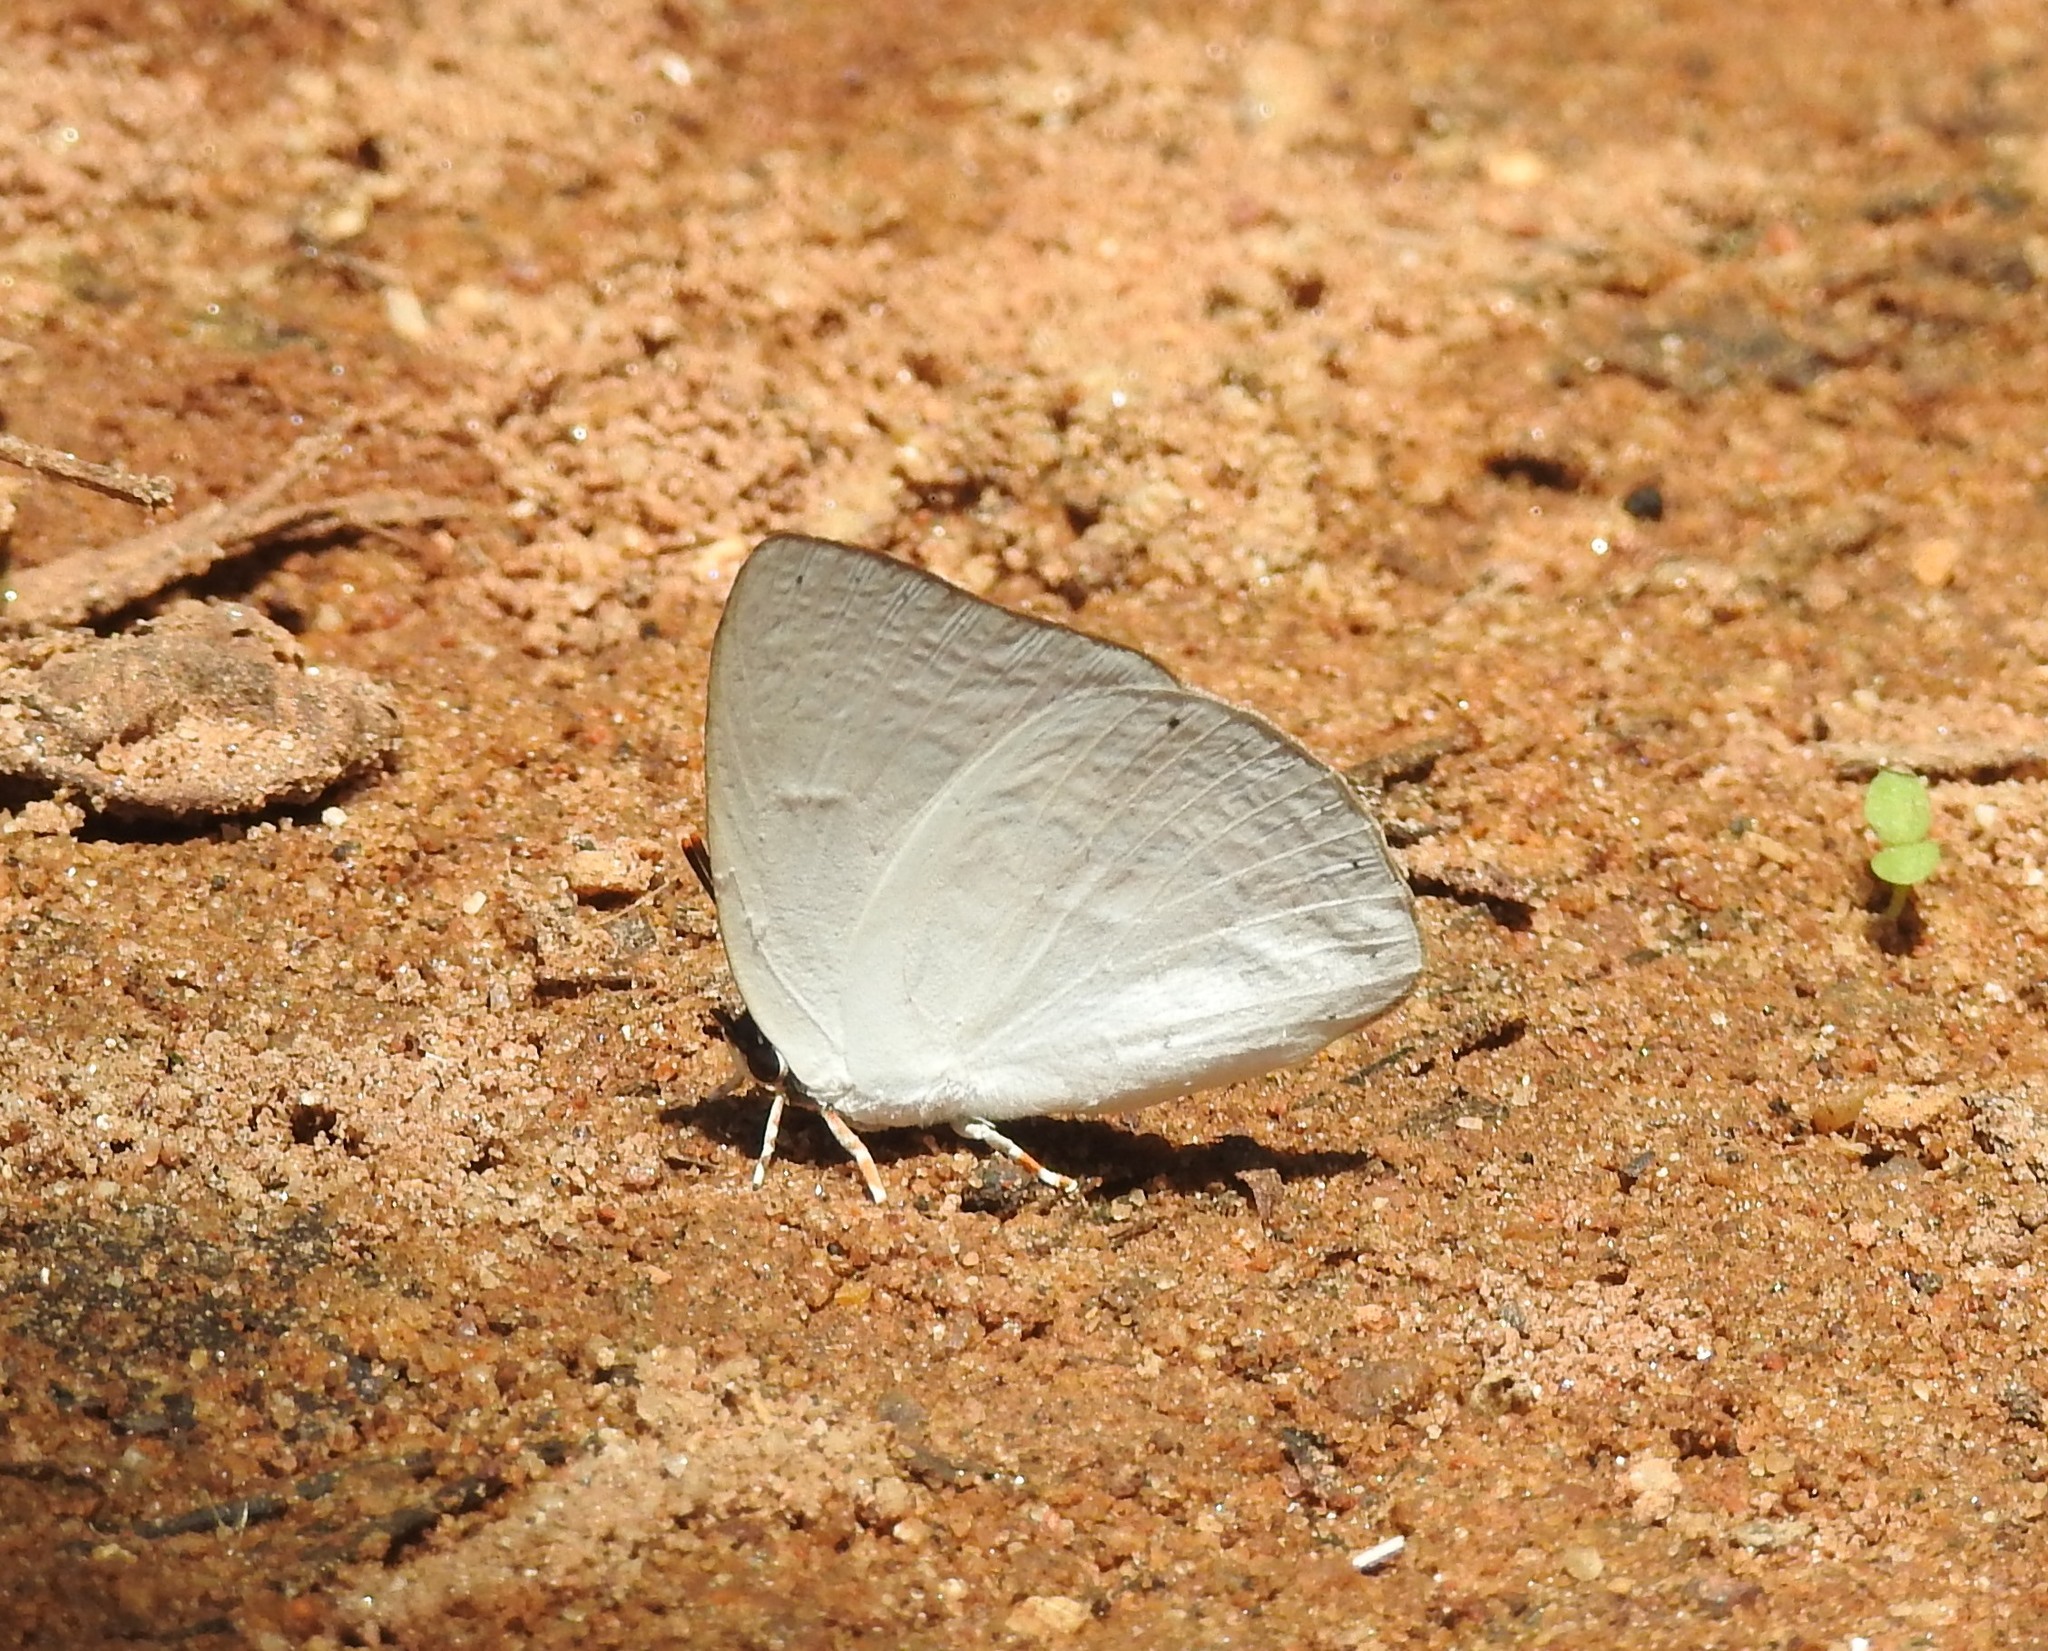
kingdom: Animalia
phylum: Arthropoda
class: Insecta
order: Lepidoptera
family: Lycaenidae
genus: Curetis
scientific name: Curetis thetis
